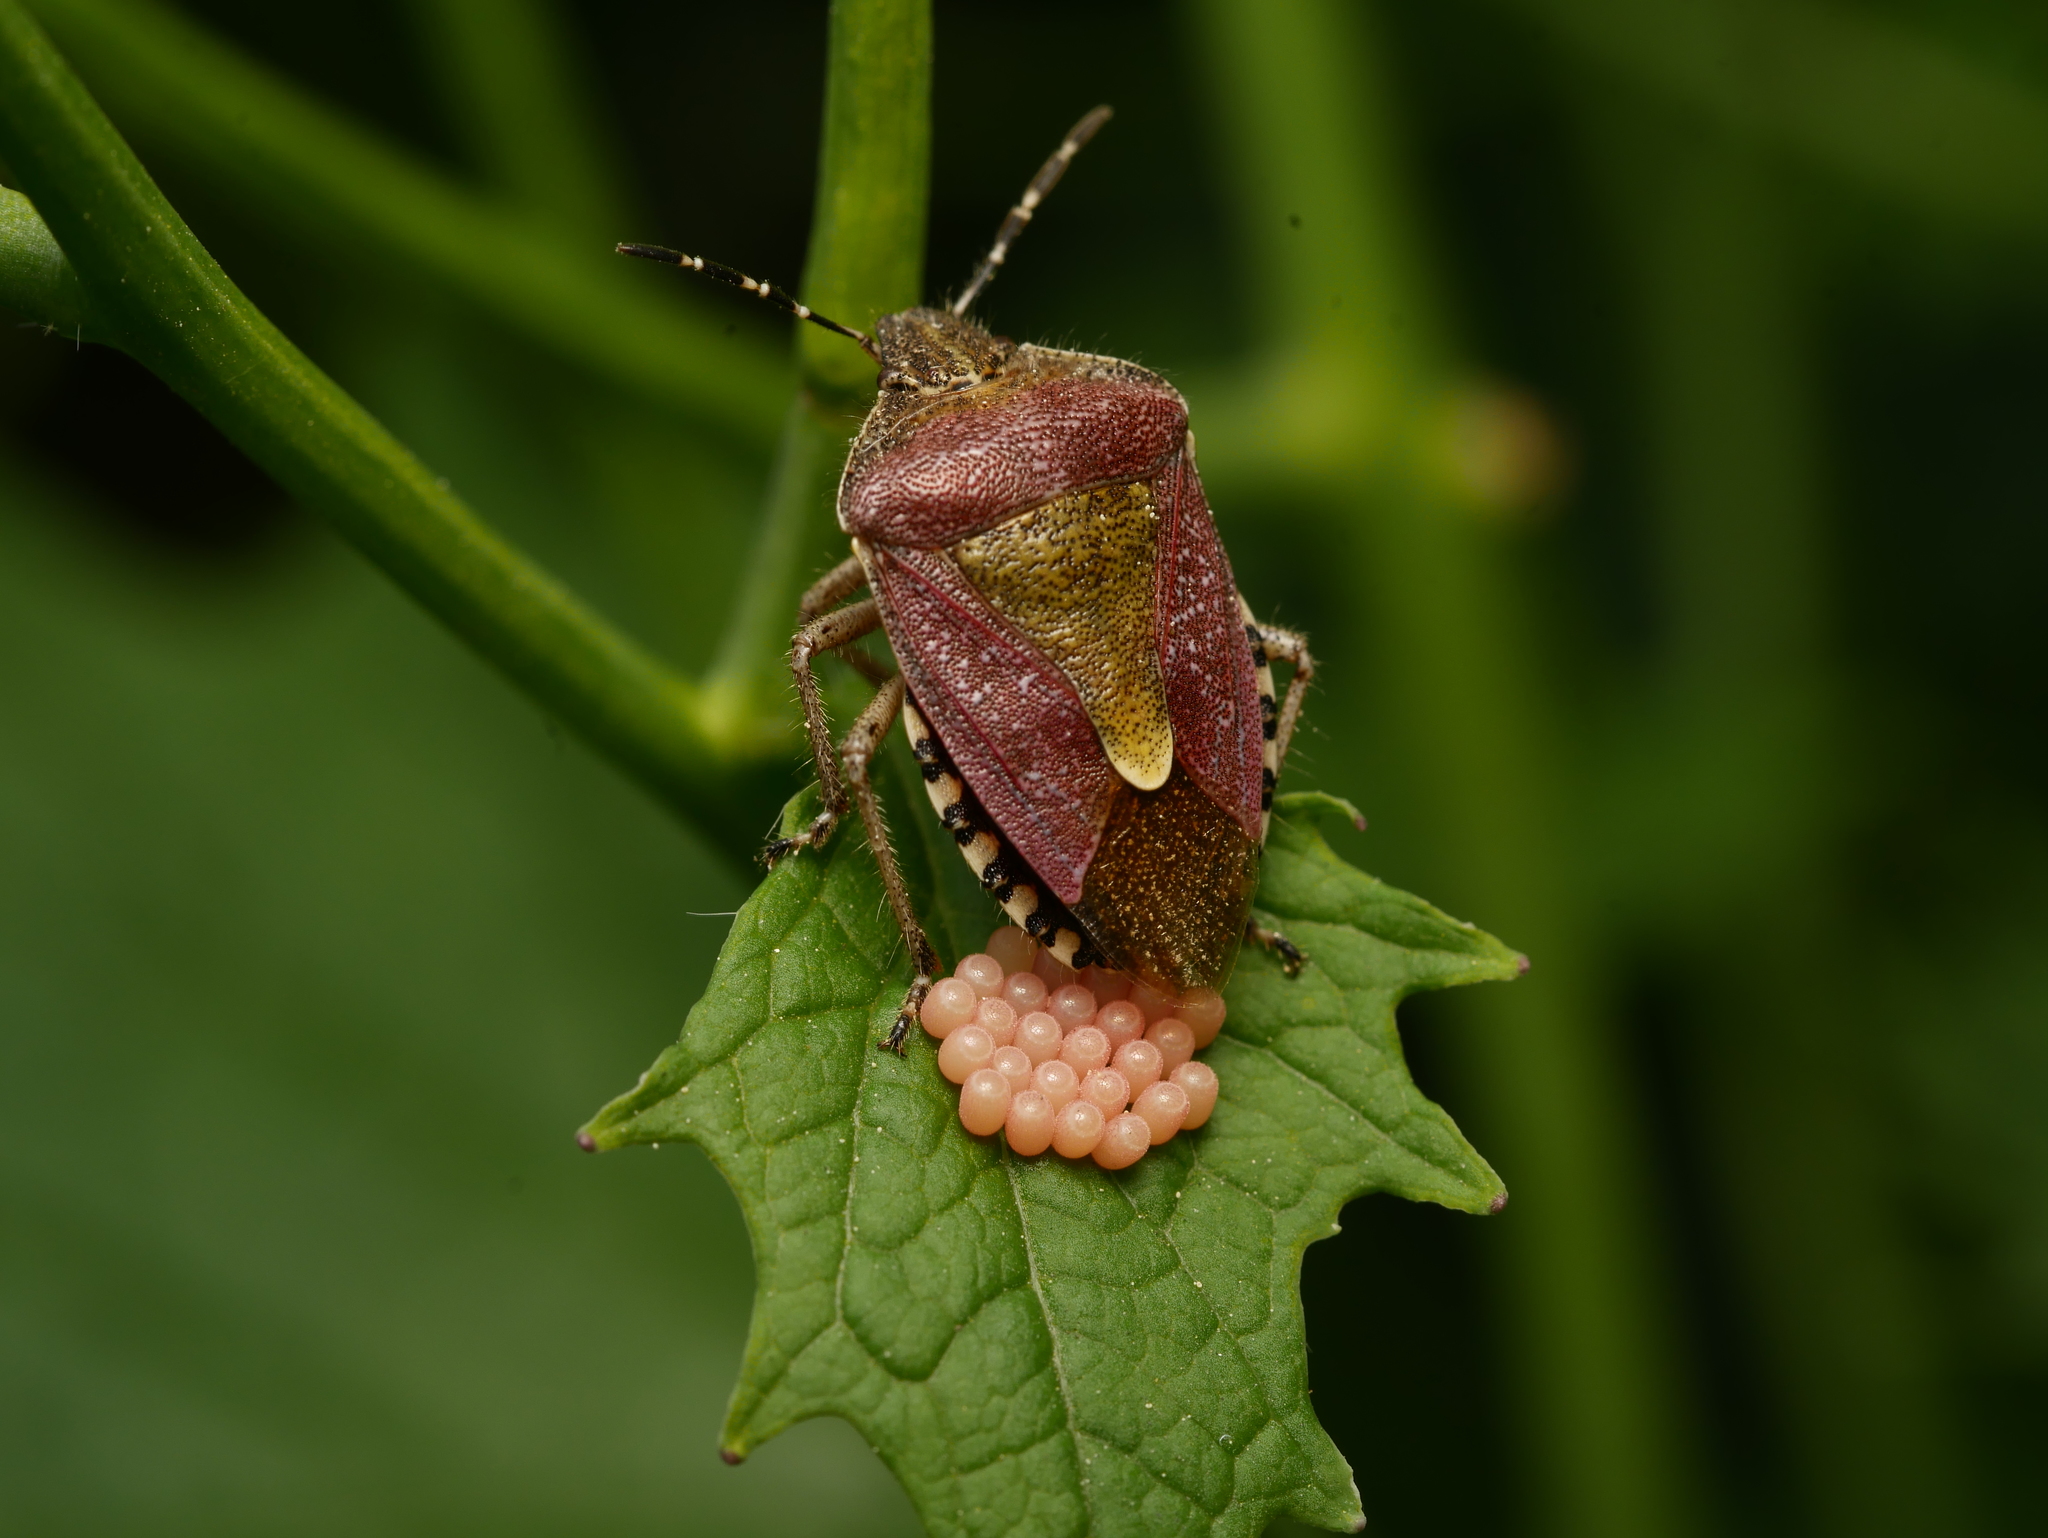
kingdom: Animalia
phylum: Arthropoda
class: Insecta
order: Hemiptera
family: Pentatomidae
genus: Dolycoris
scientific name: Dolycoris baccarum
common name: Sloe bug
